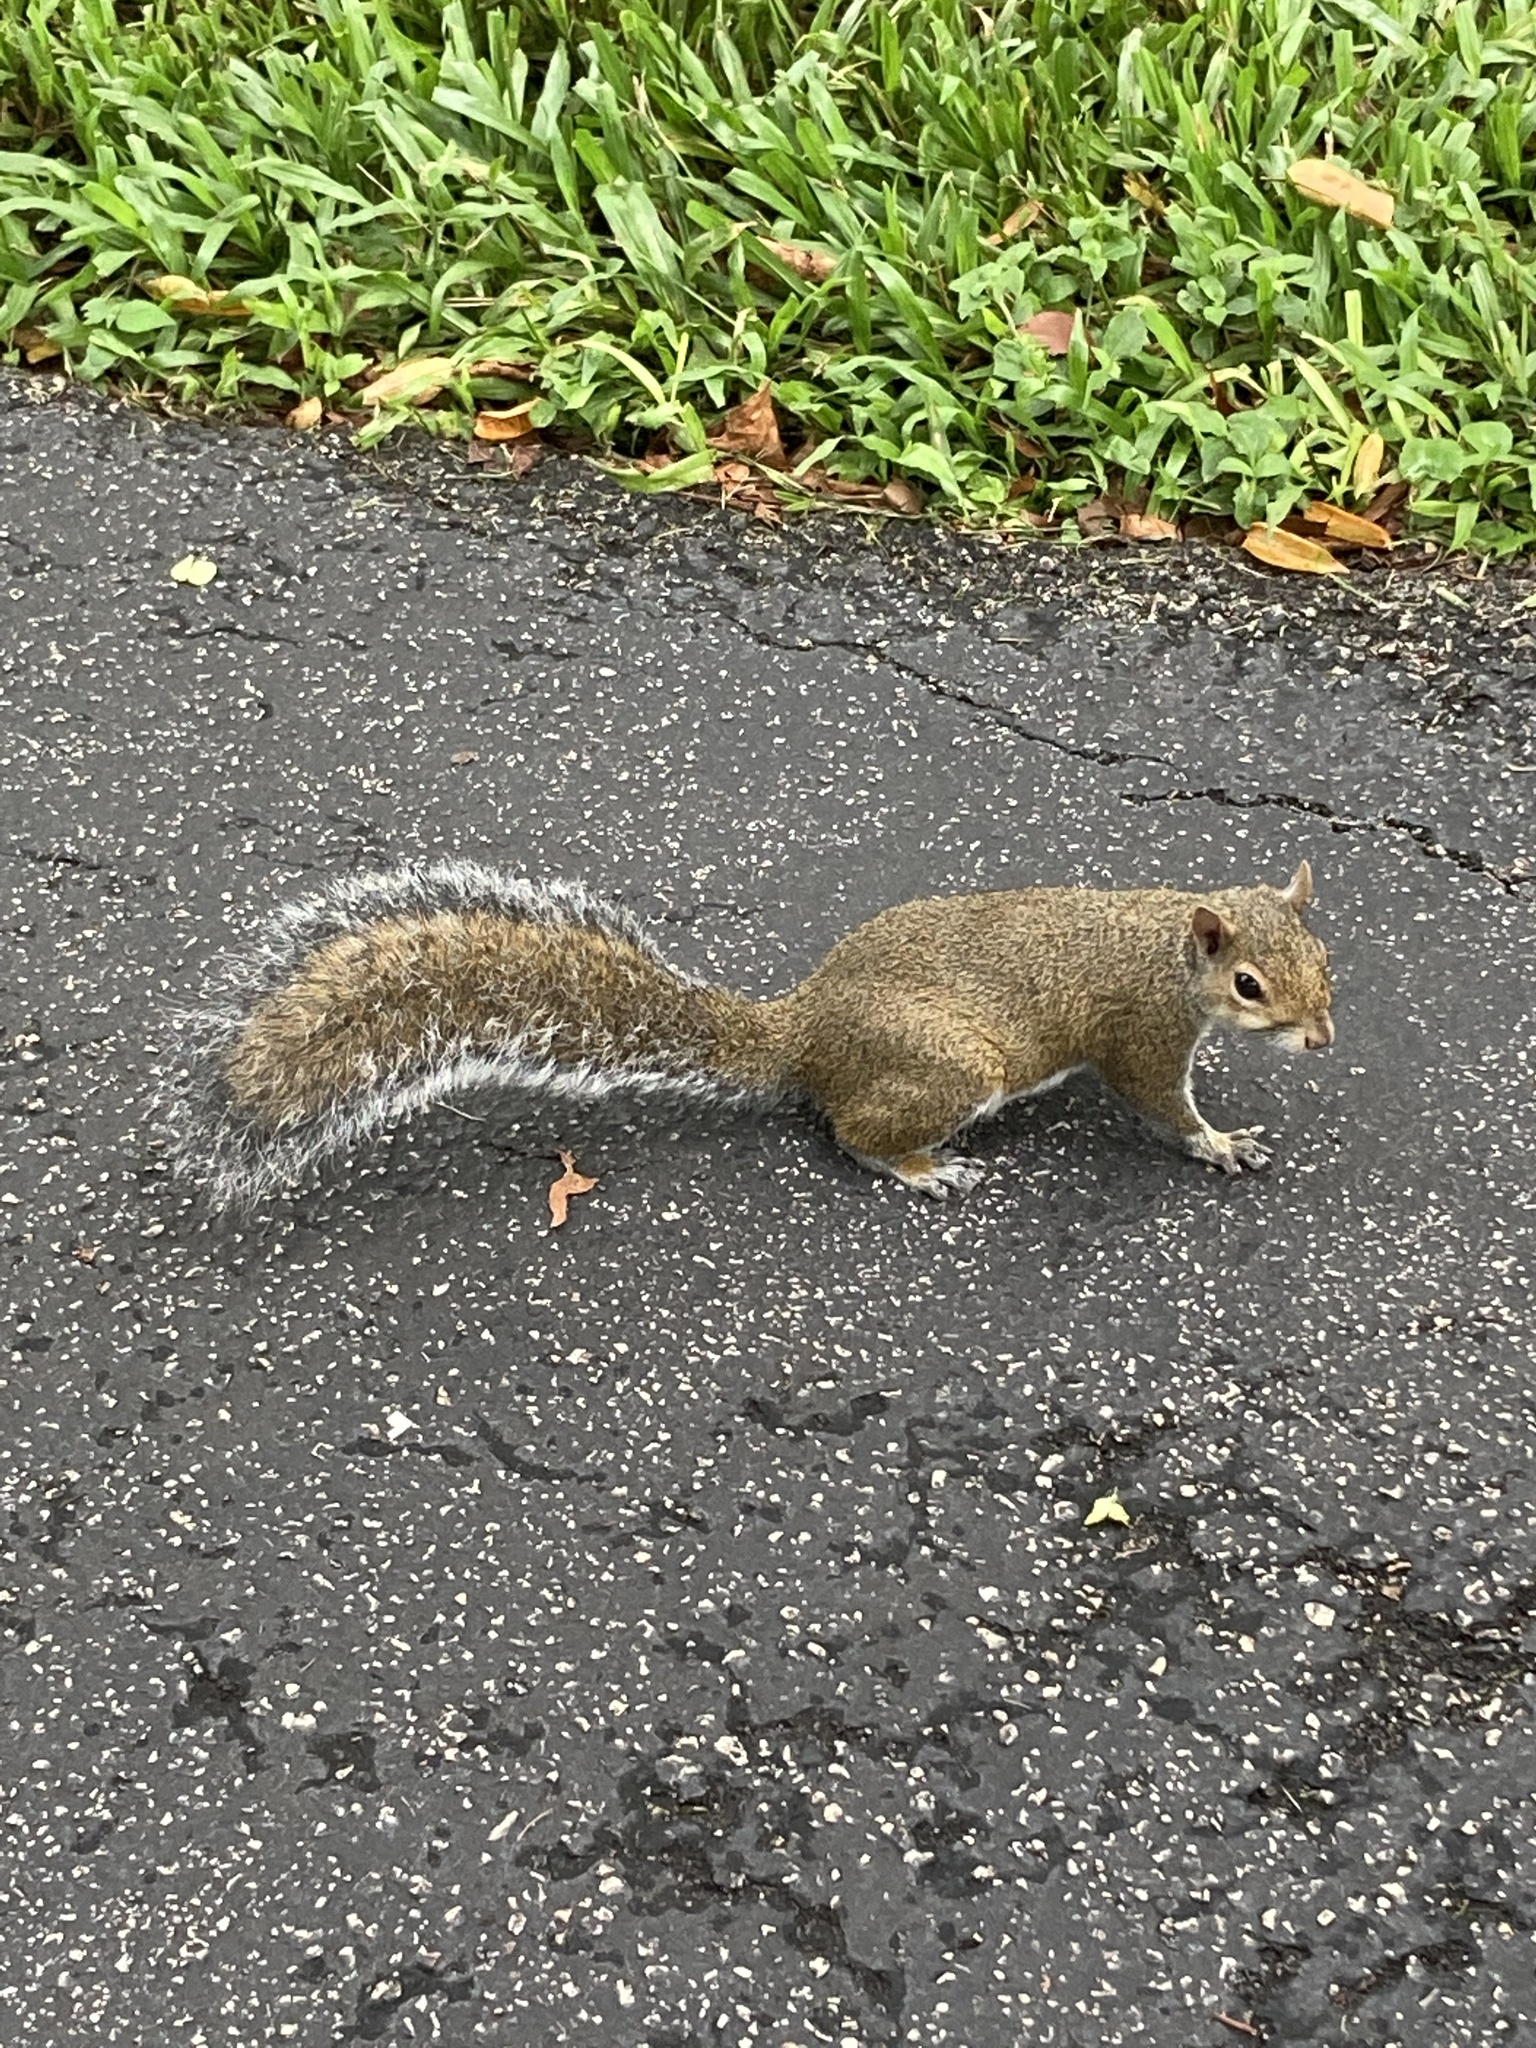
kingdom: Animalia
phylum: Chordata
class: Mammalia
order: Rodentia
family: Sciuridae
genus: Sciurus
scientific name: Sciurus carolinensis
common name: Eastern gray squirrel
